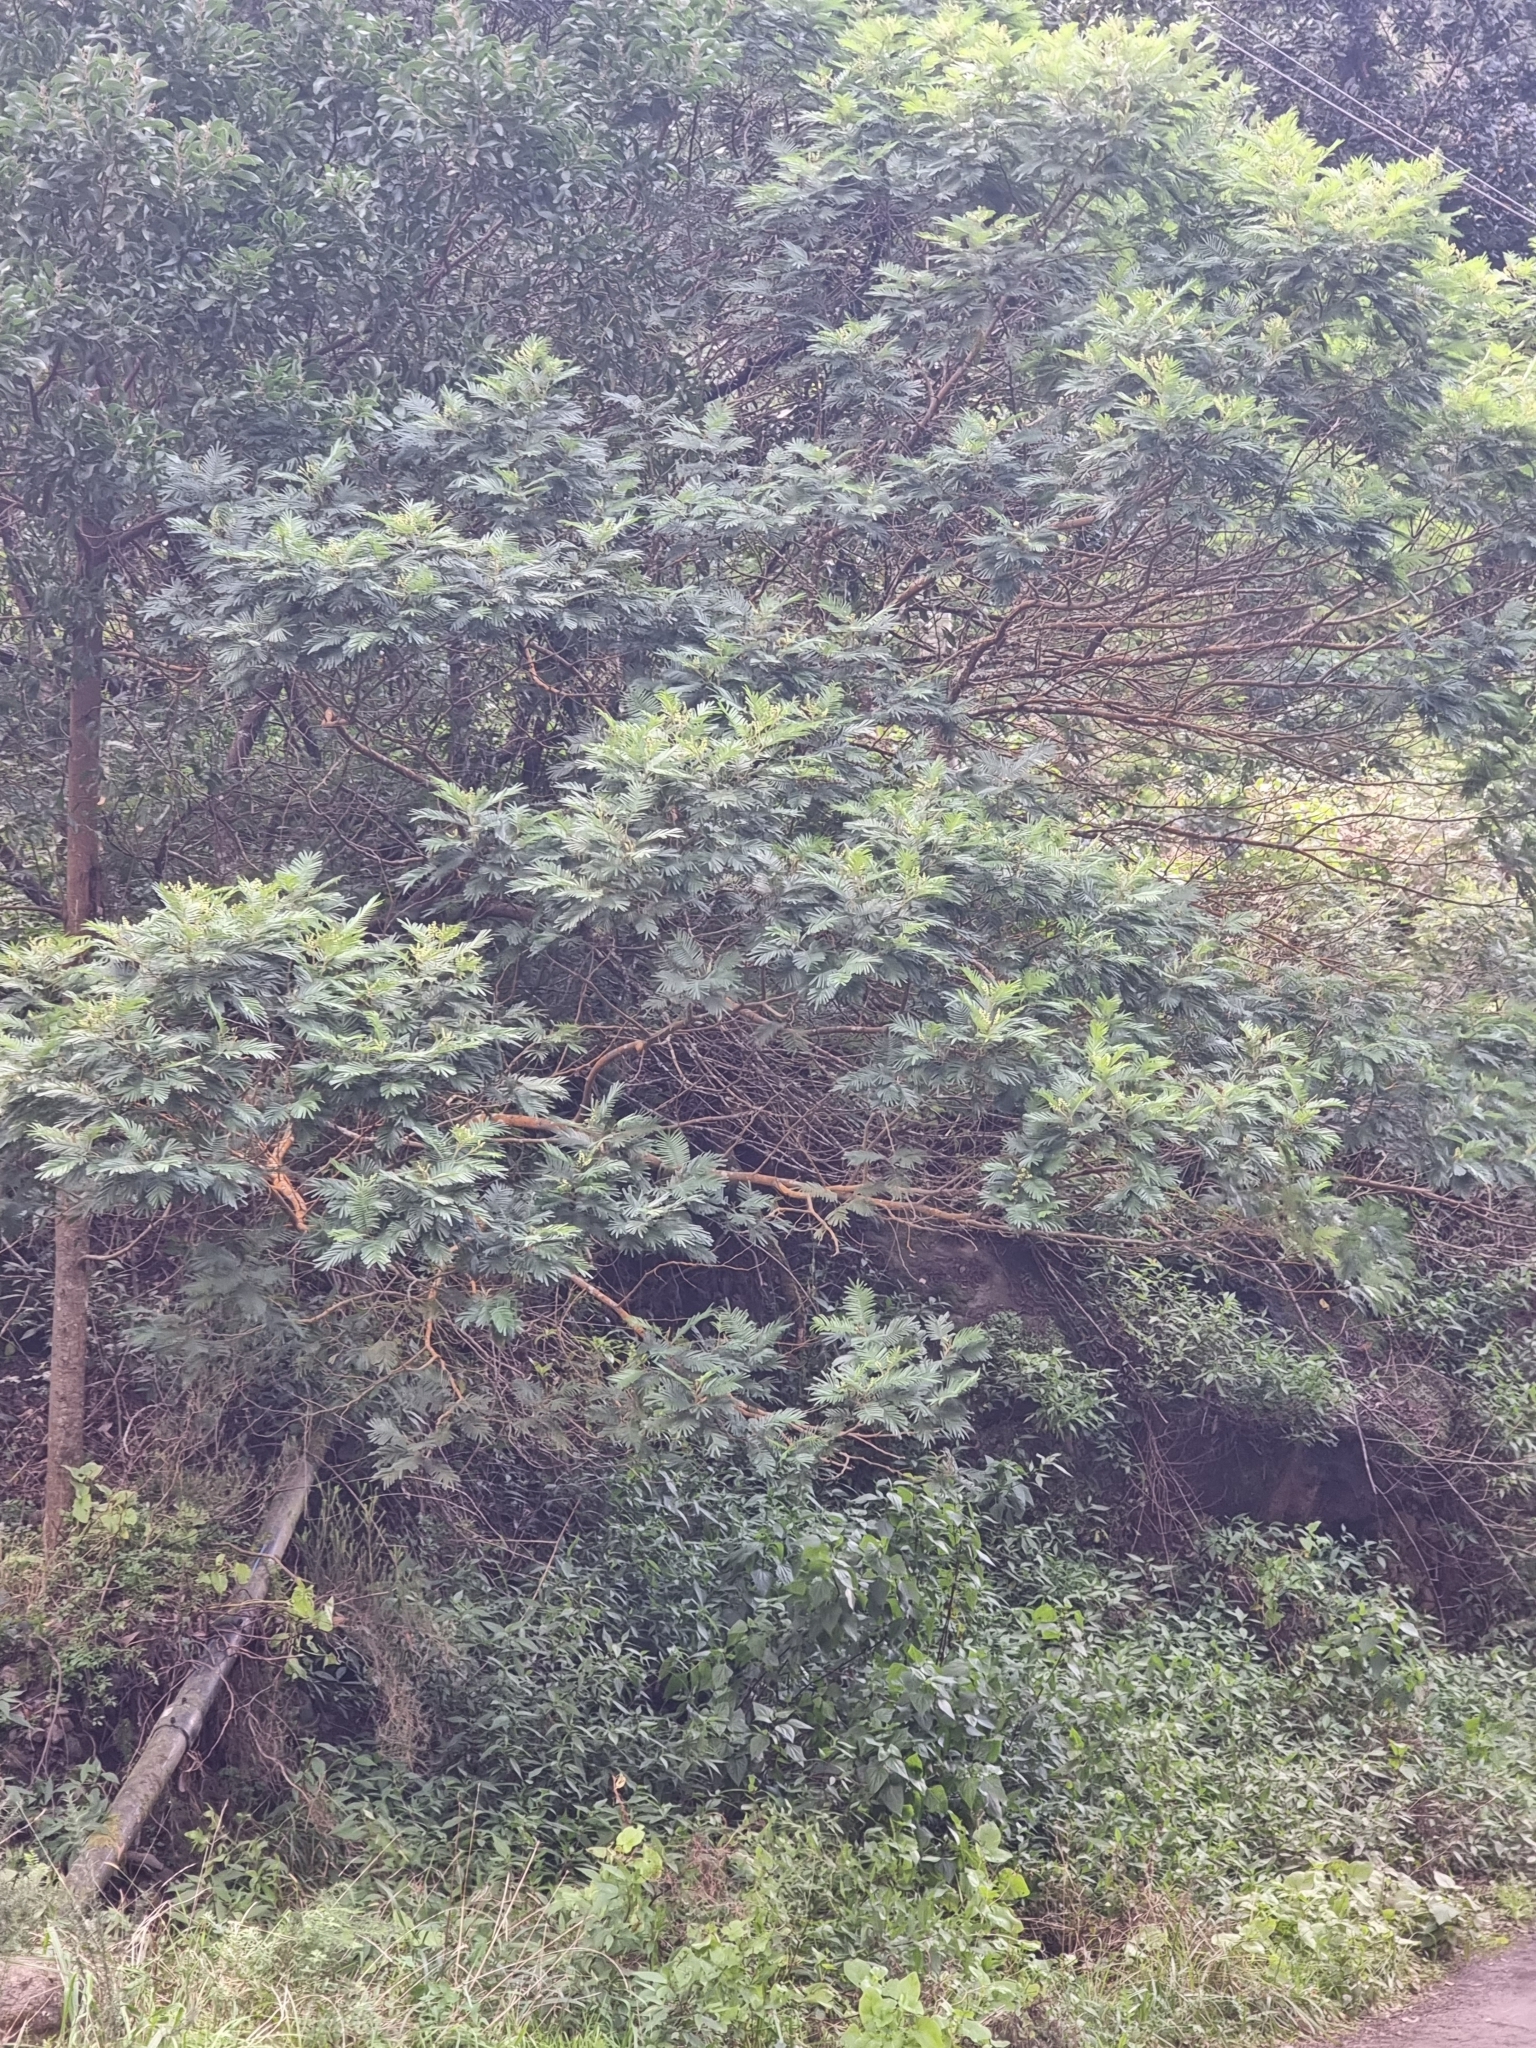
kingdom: Plantae
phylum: Tracheophyta
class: Magnoliopsida
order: Fabales
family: Fabaceae
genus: Acacia
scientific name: Acacia mearnsii
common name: Black wattle
